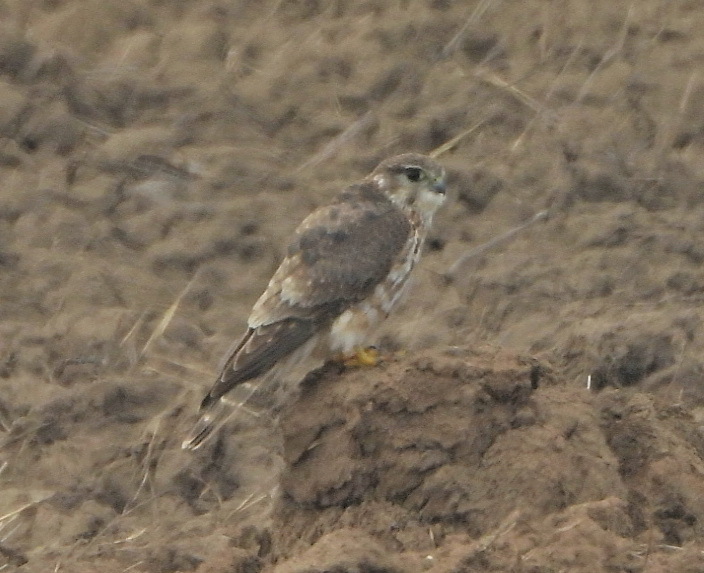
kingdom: Animalia
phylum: Chordata
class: Aves
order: Falconiformes
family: Falconidae
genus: Falco
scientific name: Falco columbarius
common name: Merlin
